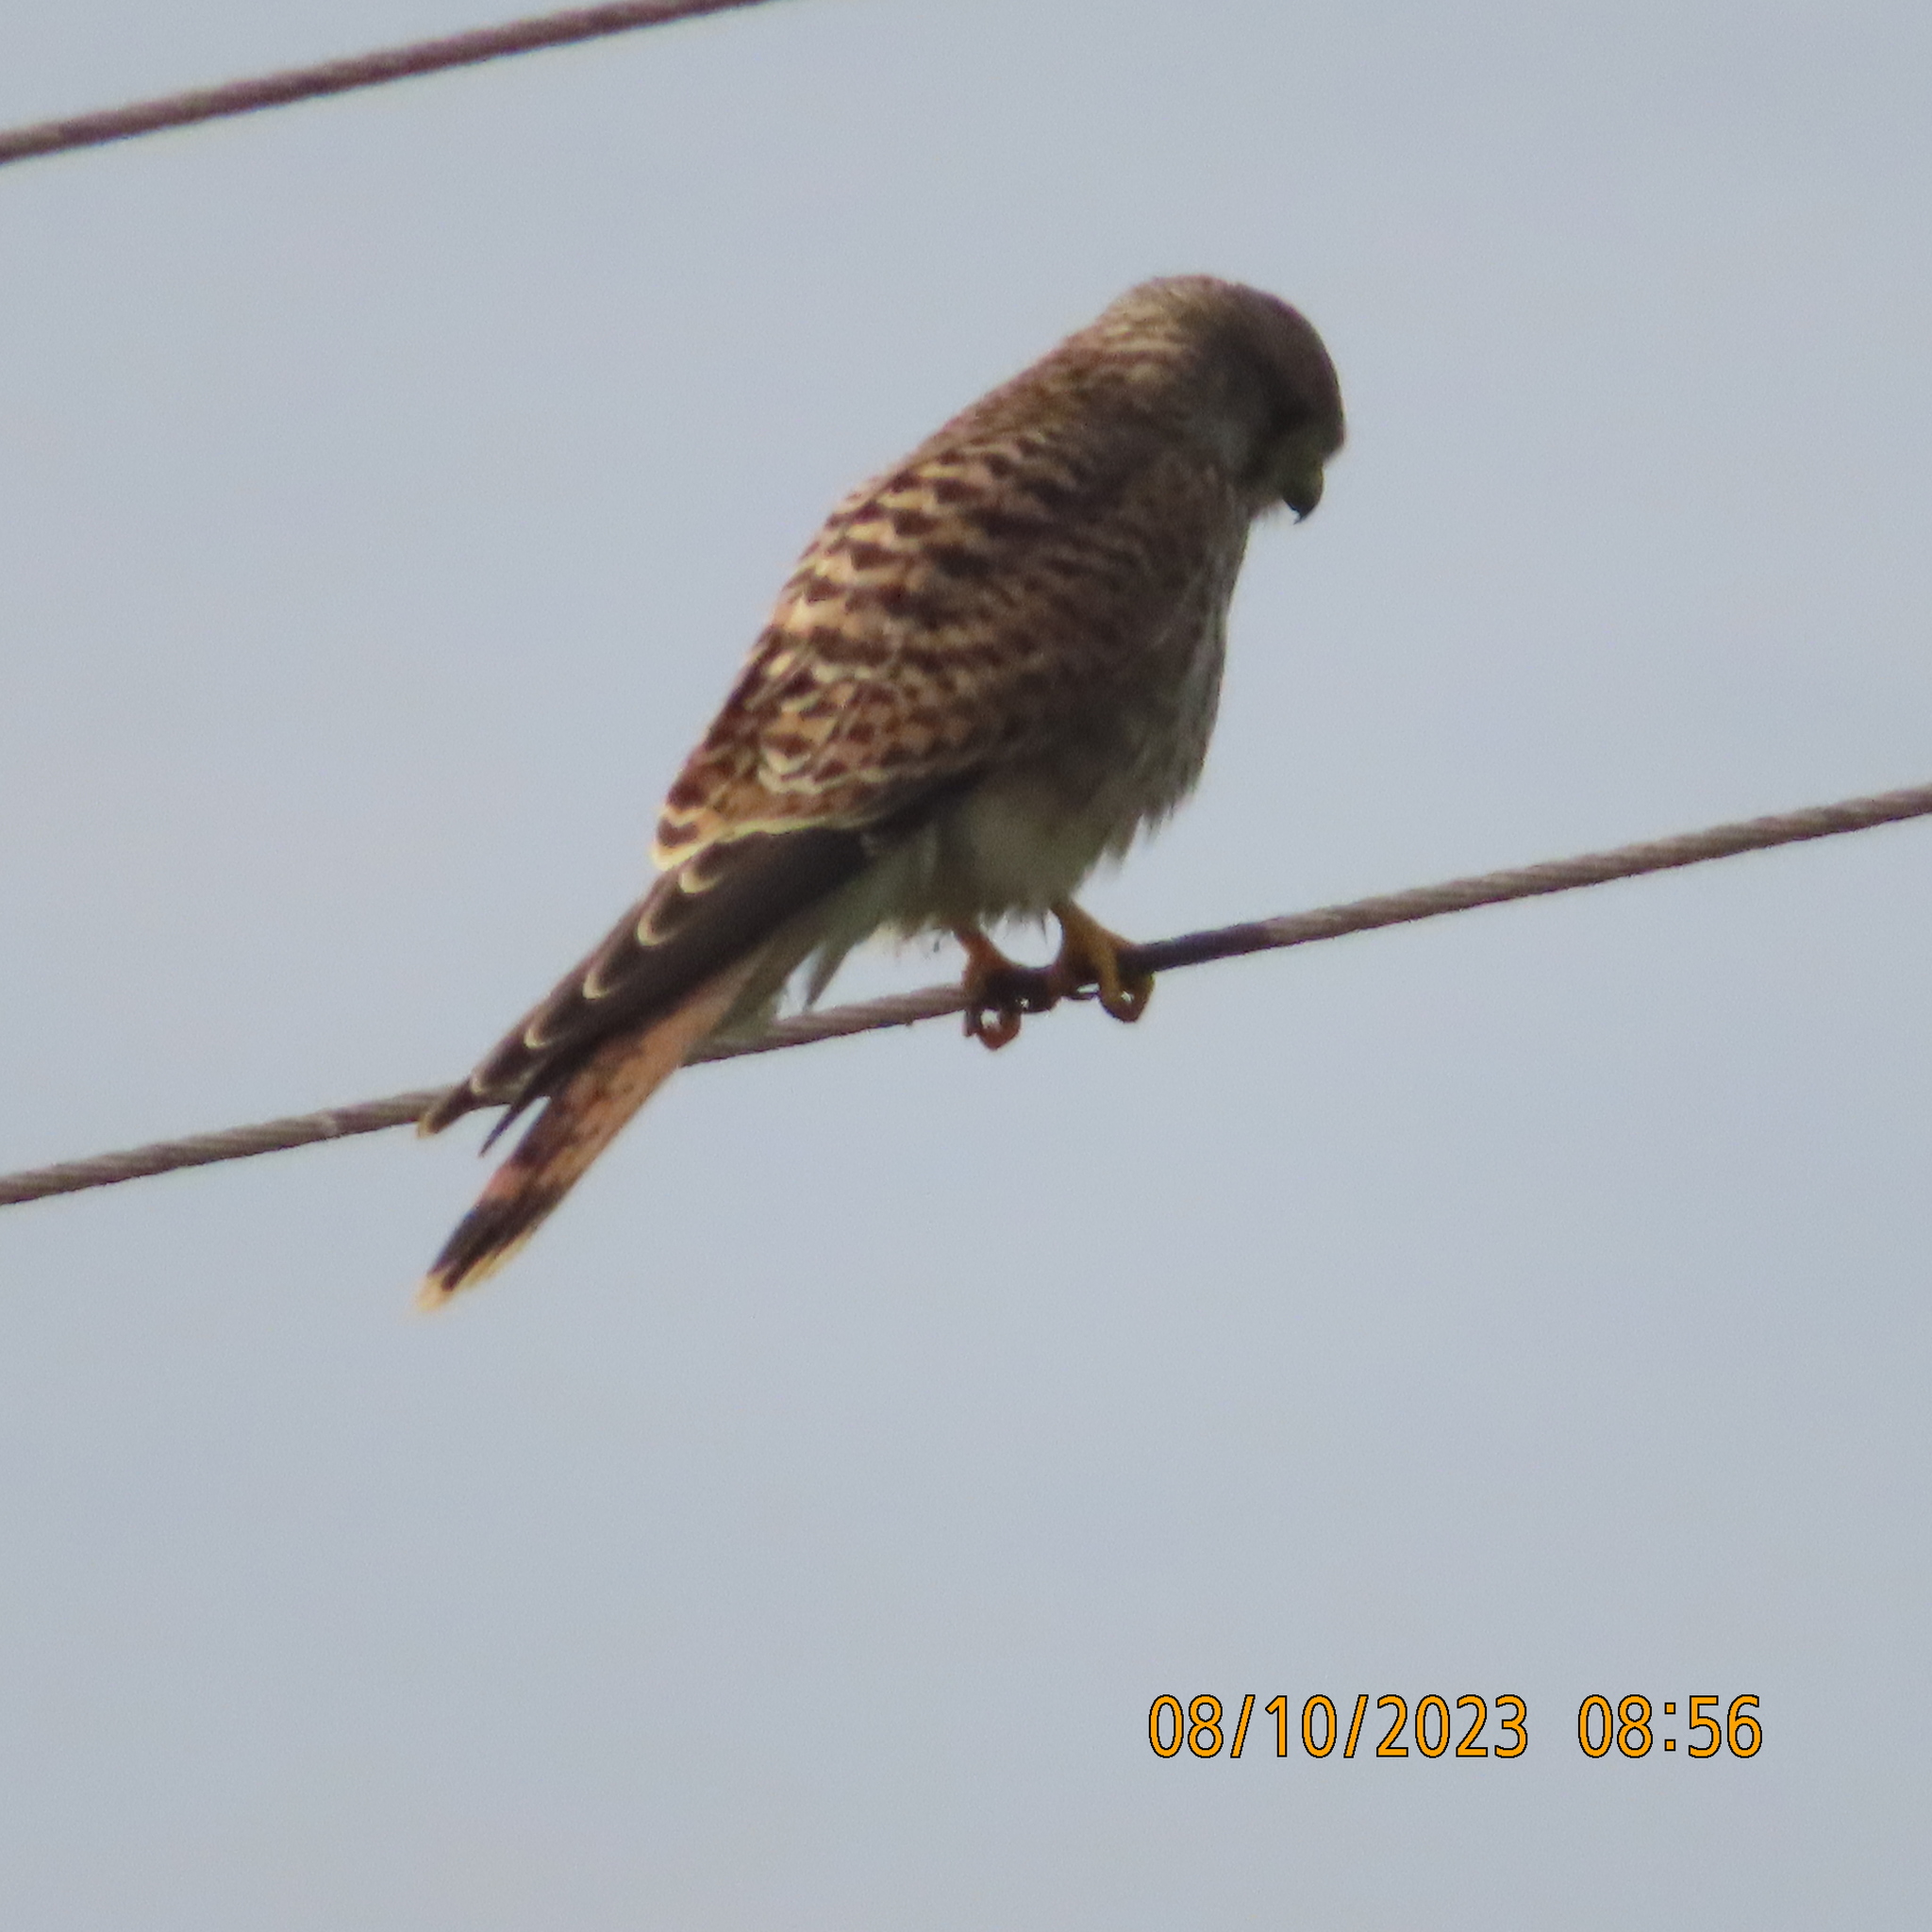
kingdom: Animalia
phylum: Chordata
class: Aves
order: Falconiformes
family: Falconidae
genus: Falco
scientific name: Falco tinnunculus
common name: Common kestrel
